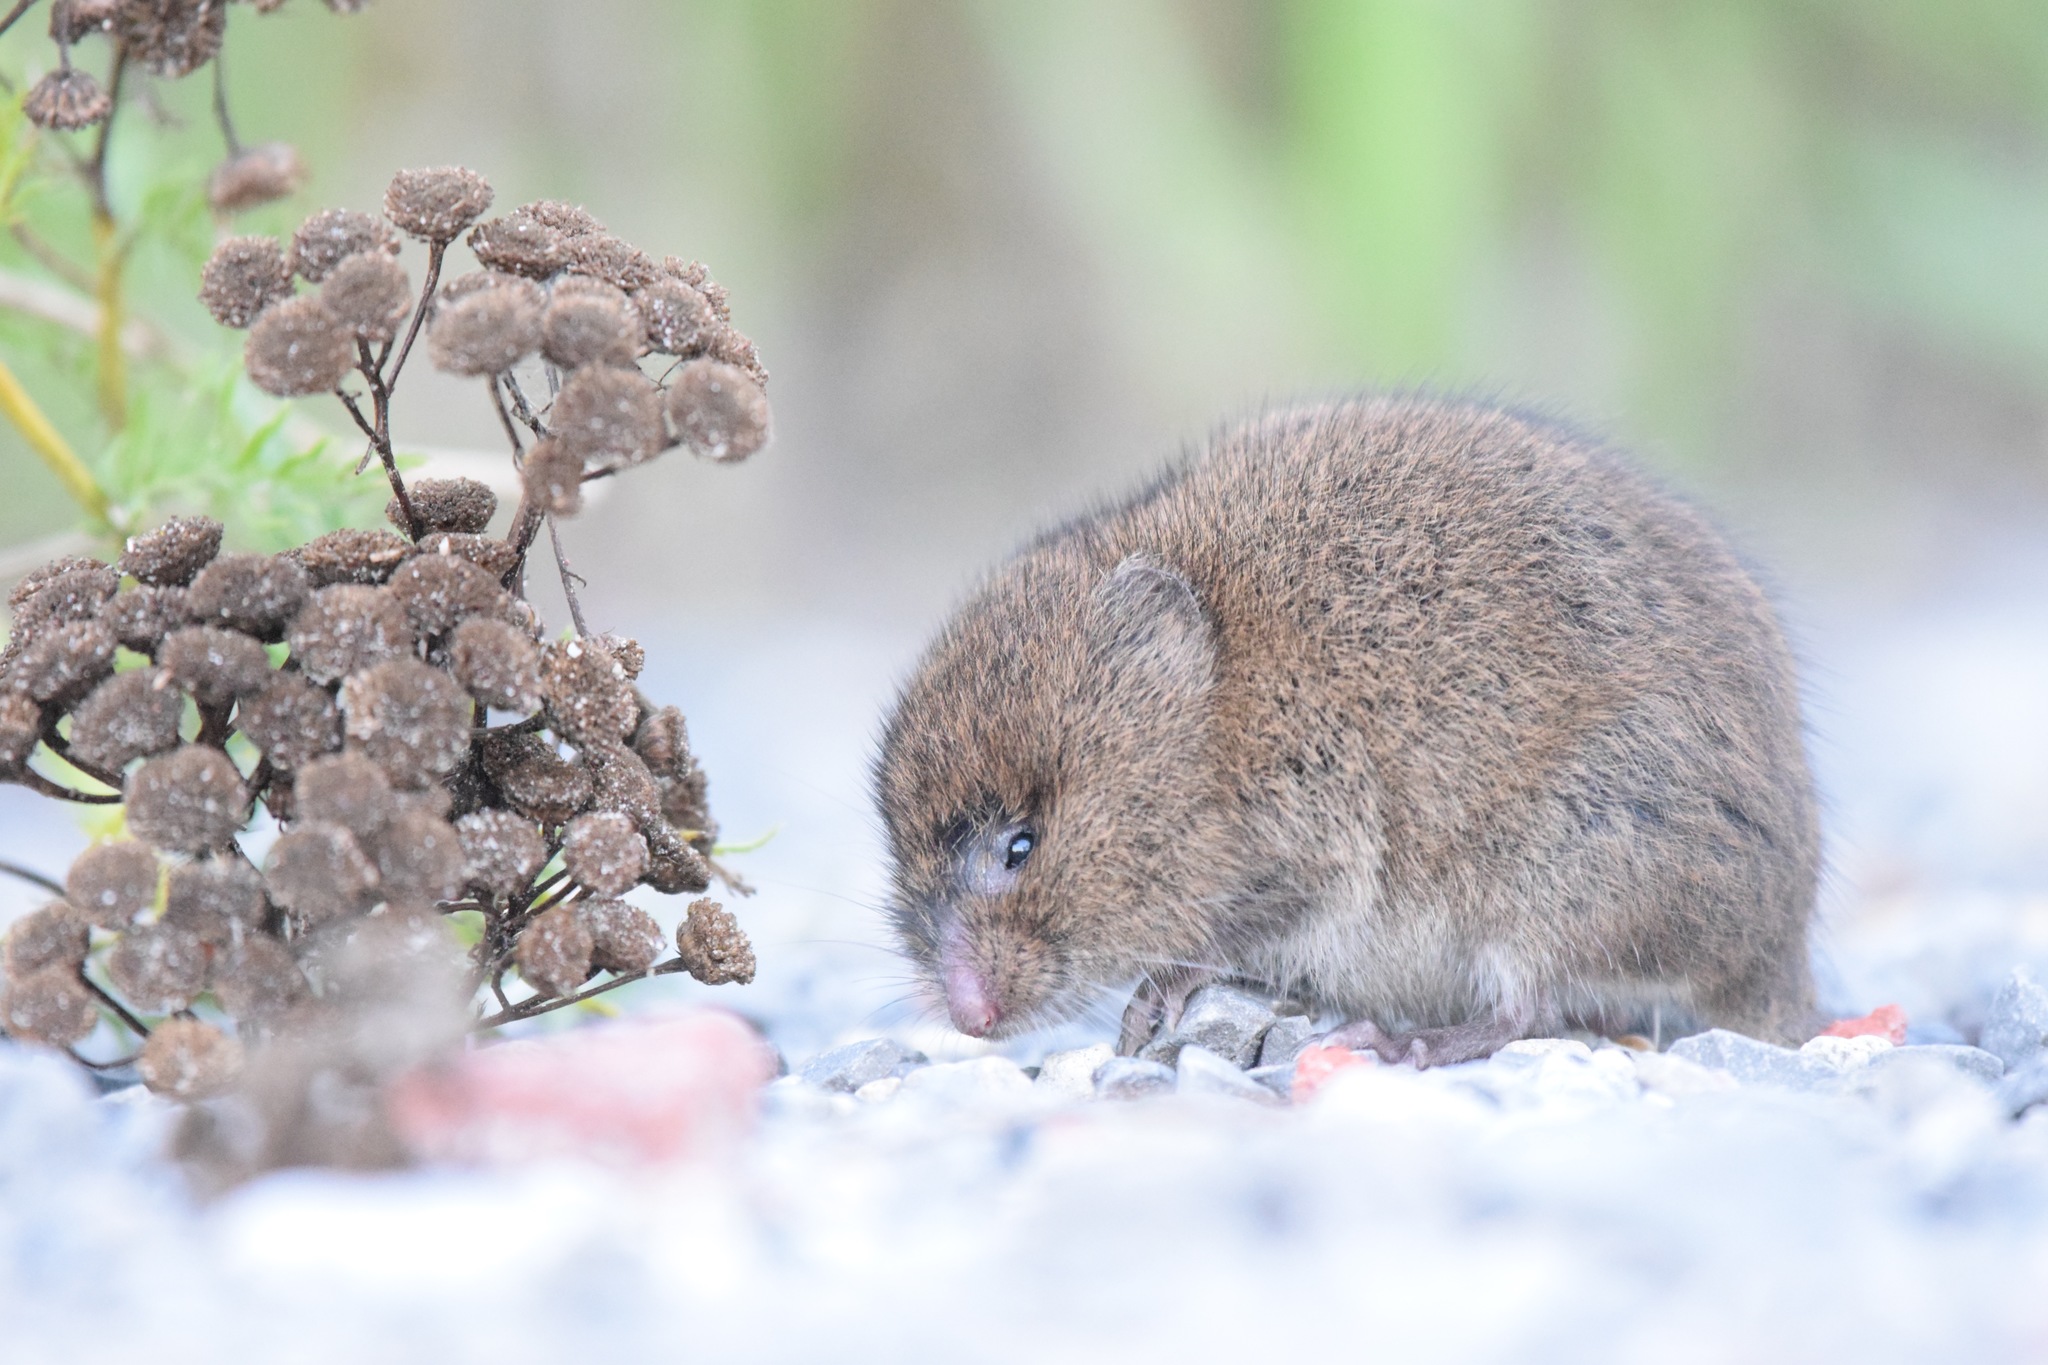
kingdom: Animalia
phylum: Chordata
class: Mammalia
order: Rodentia
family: Cricetidae
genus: Microtus
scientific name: Microtus pennsylvanicus
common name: Meadow vole
